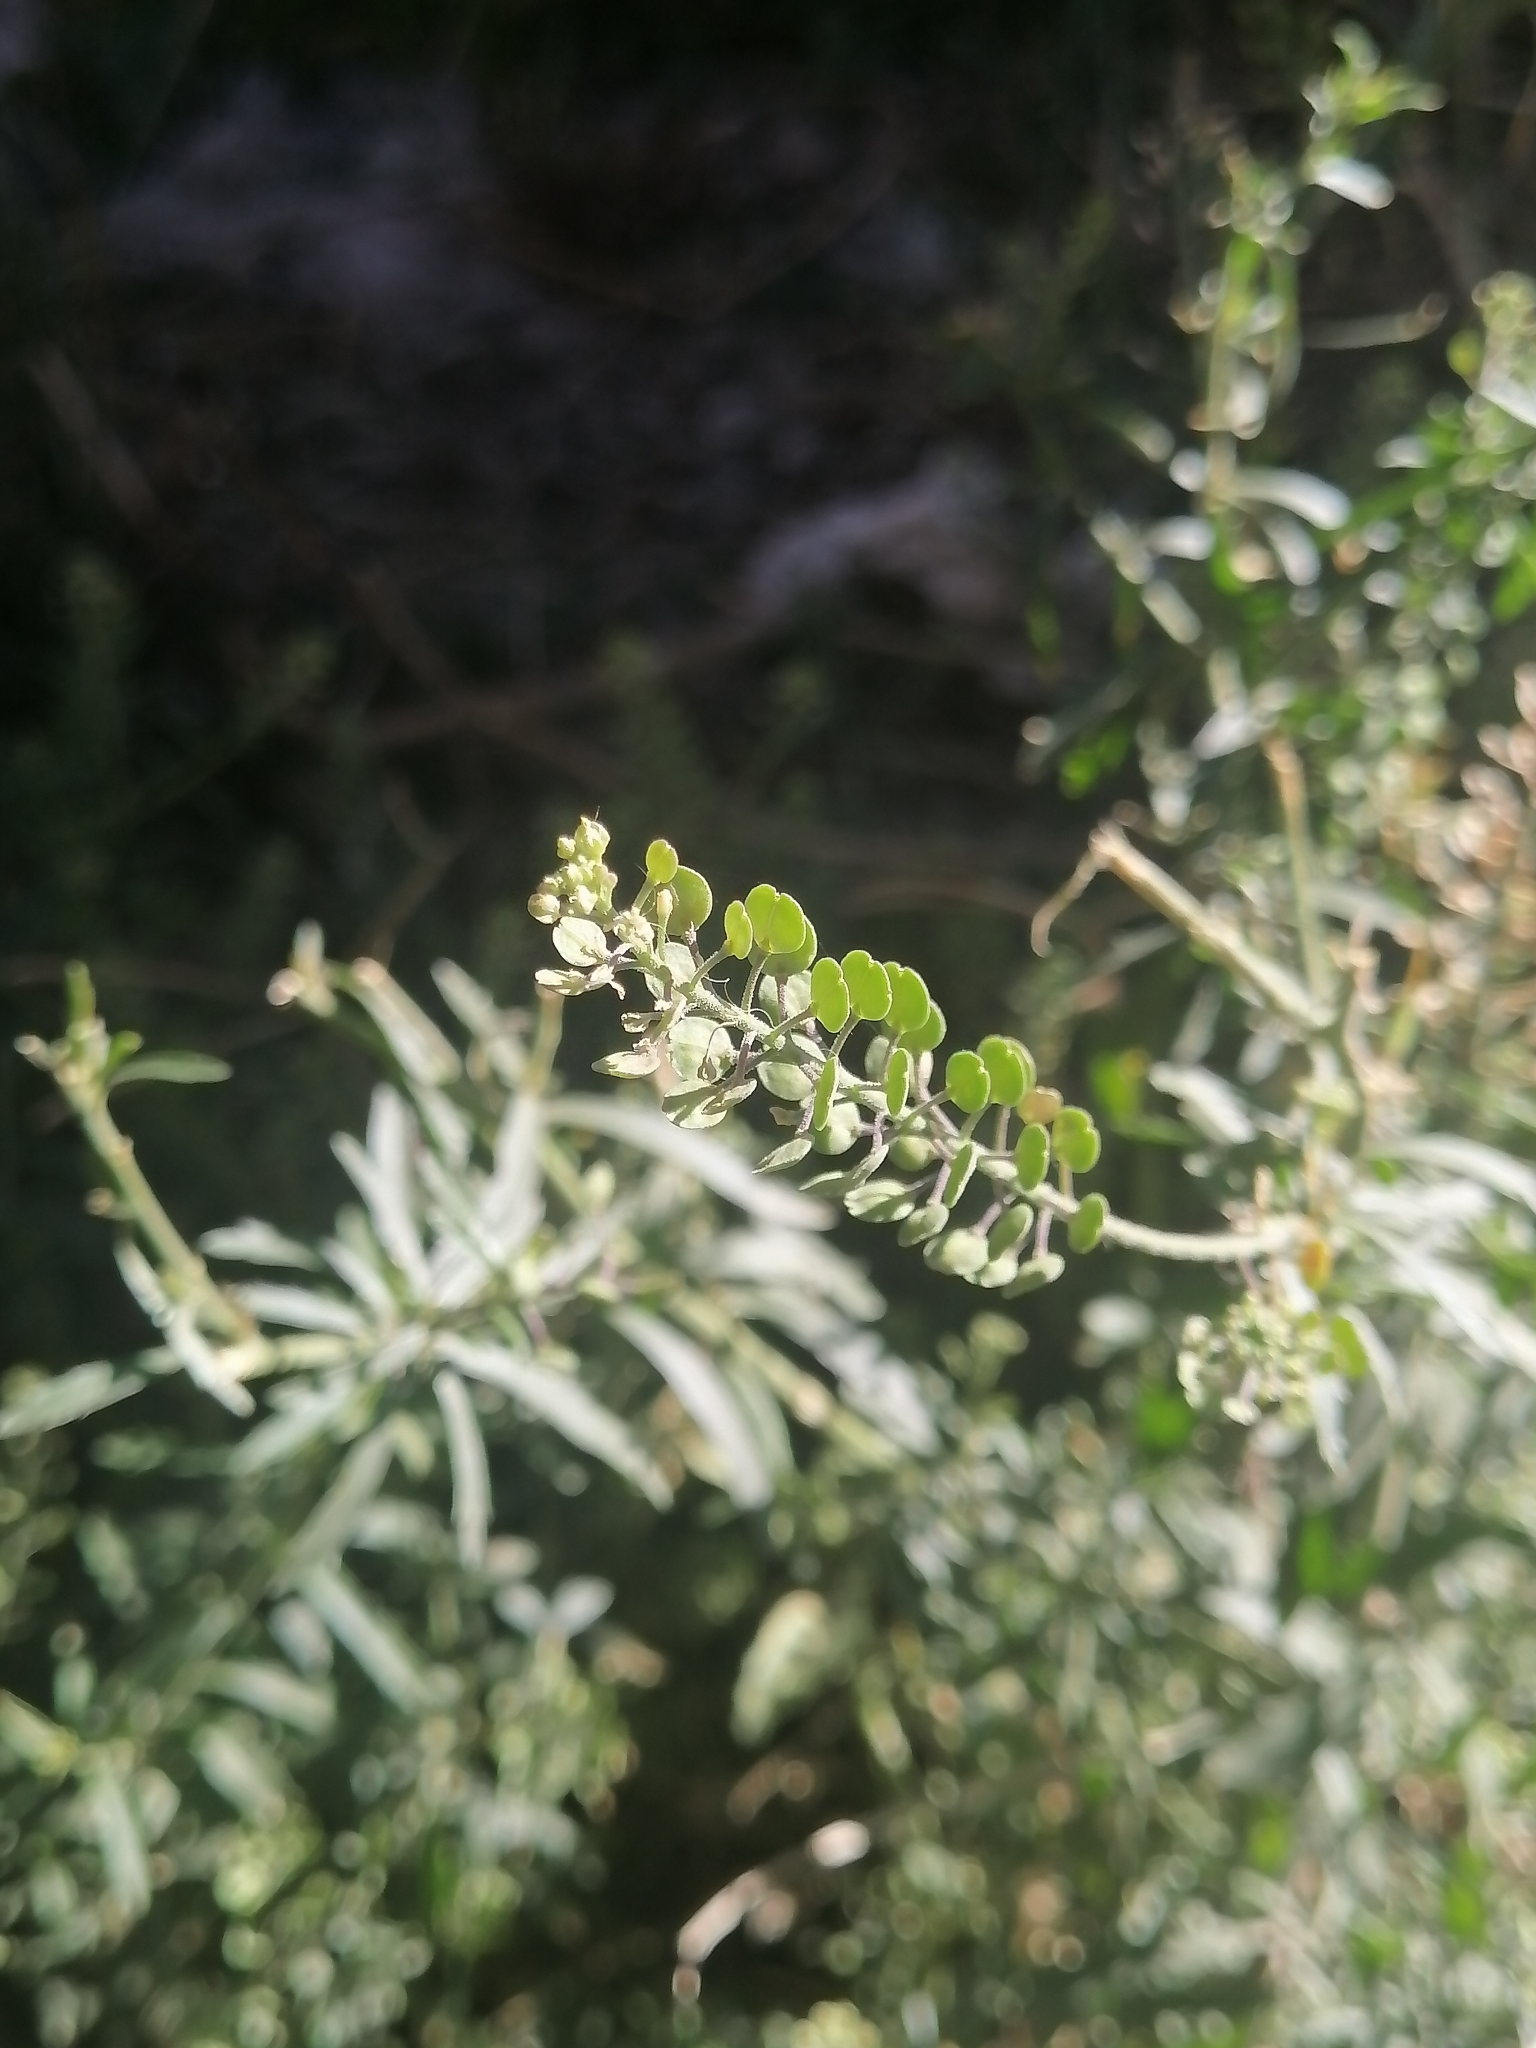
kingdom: Plantae
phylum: Tracheophyta
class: Magnoliopsida
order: Brassicales
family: Brassicaceae
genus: Lepidium
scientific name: Lepidium virginicum
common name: Least pepperwort
